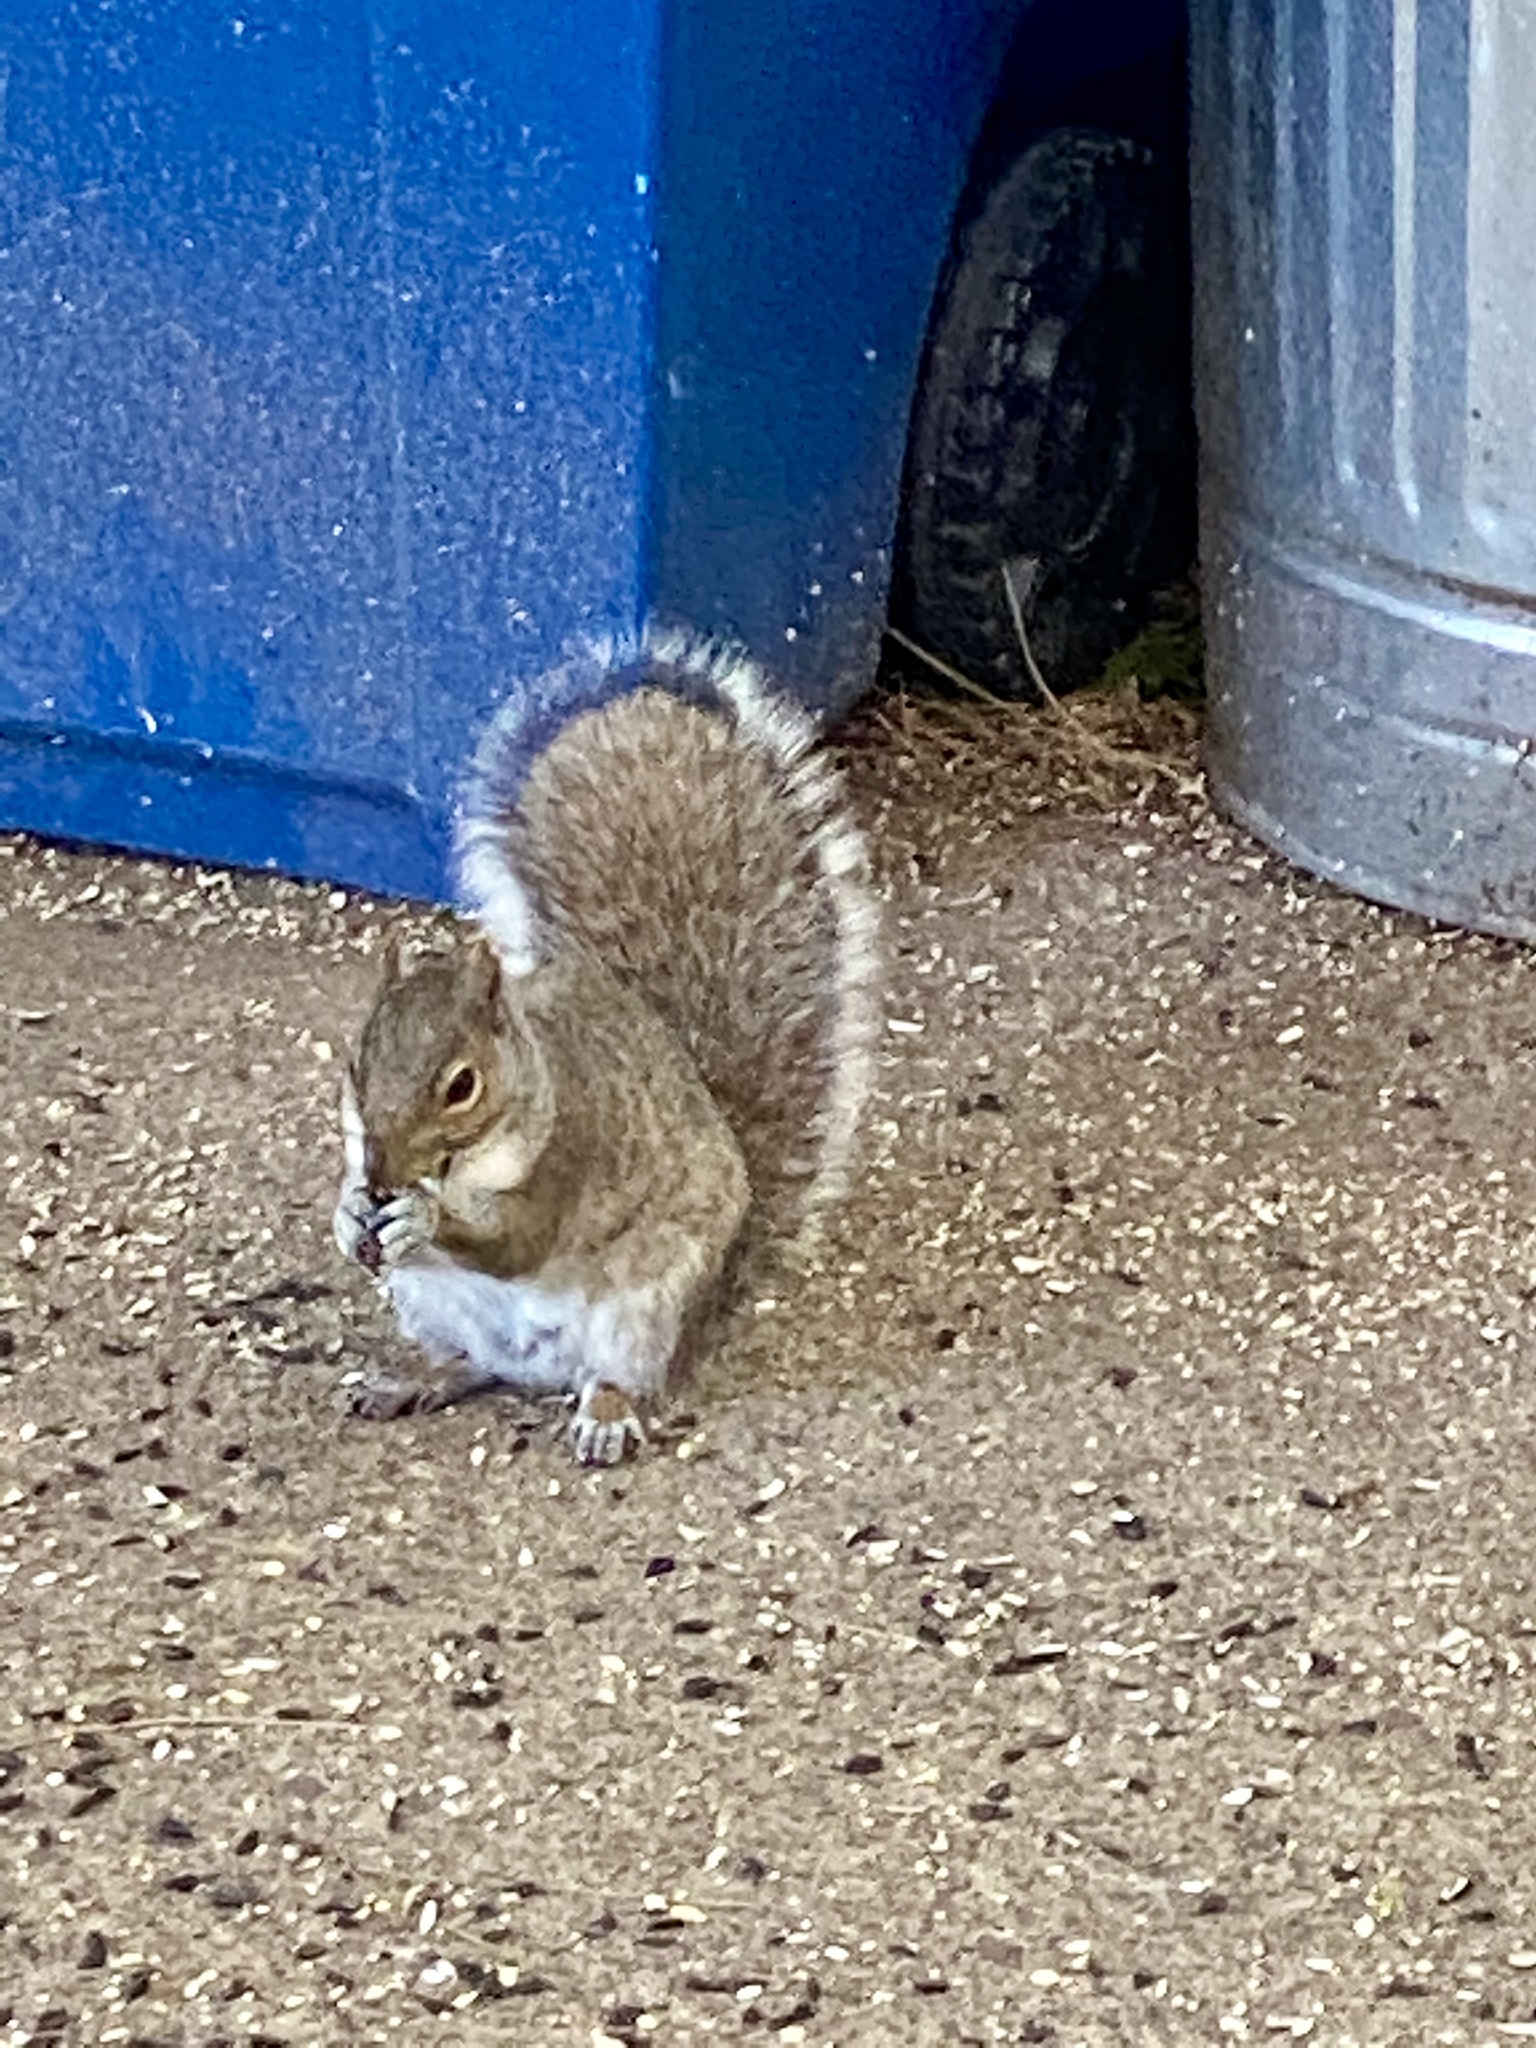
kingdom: Animalia
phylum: Chordata
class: Mammalia
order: Rodentia
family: Sciuridae
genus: Sciurus
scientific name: Sciurus carolinensis
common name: Eastern gray squirrel
